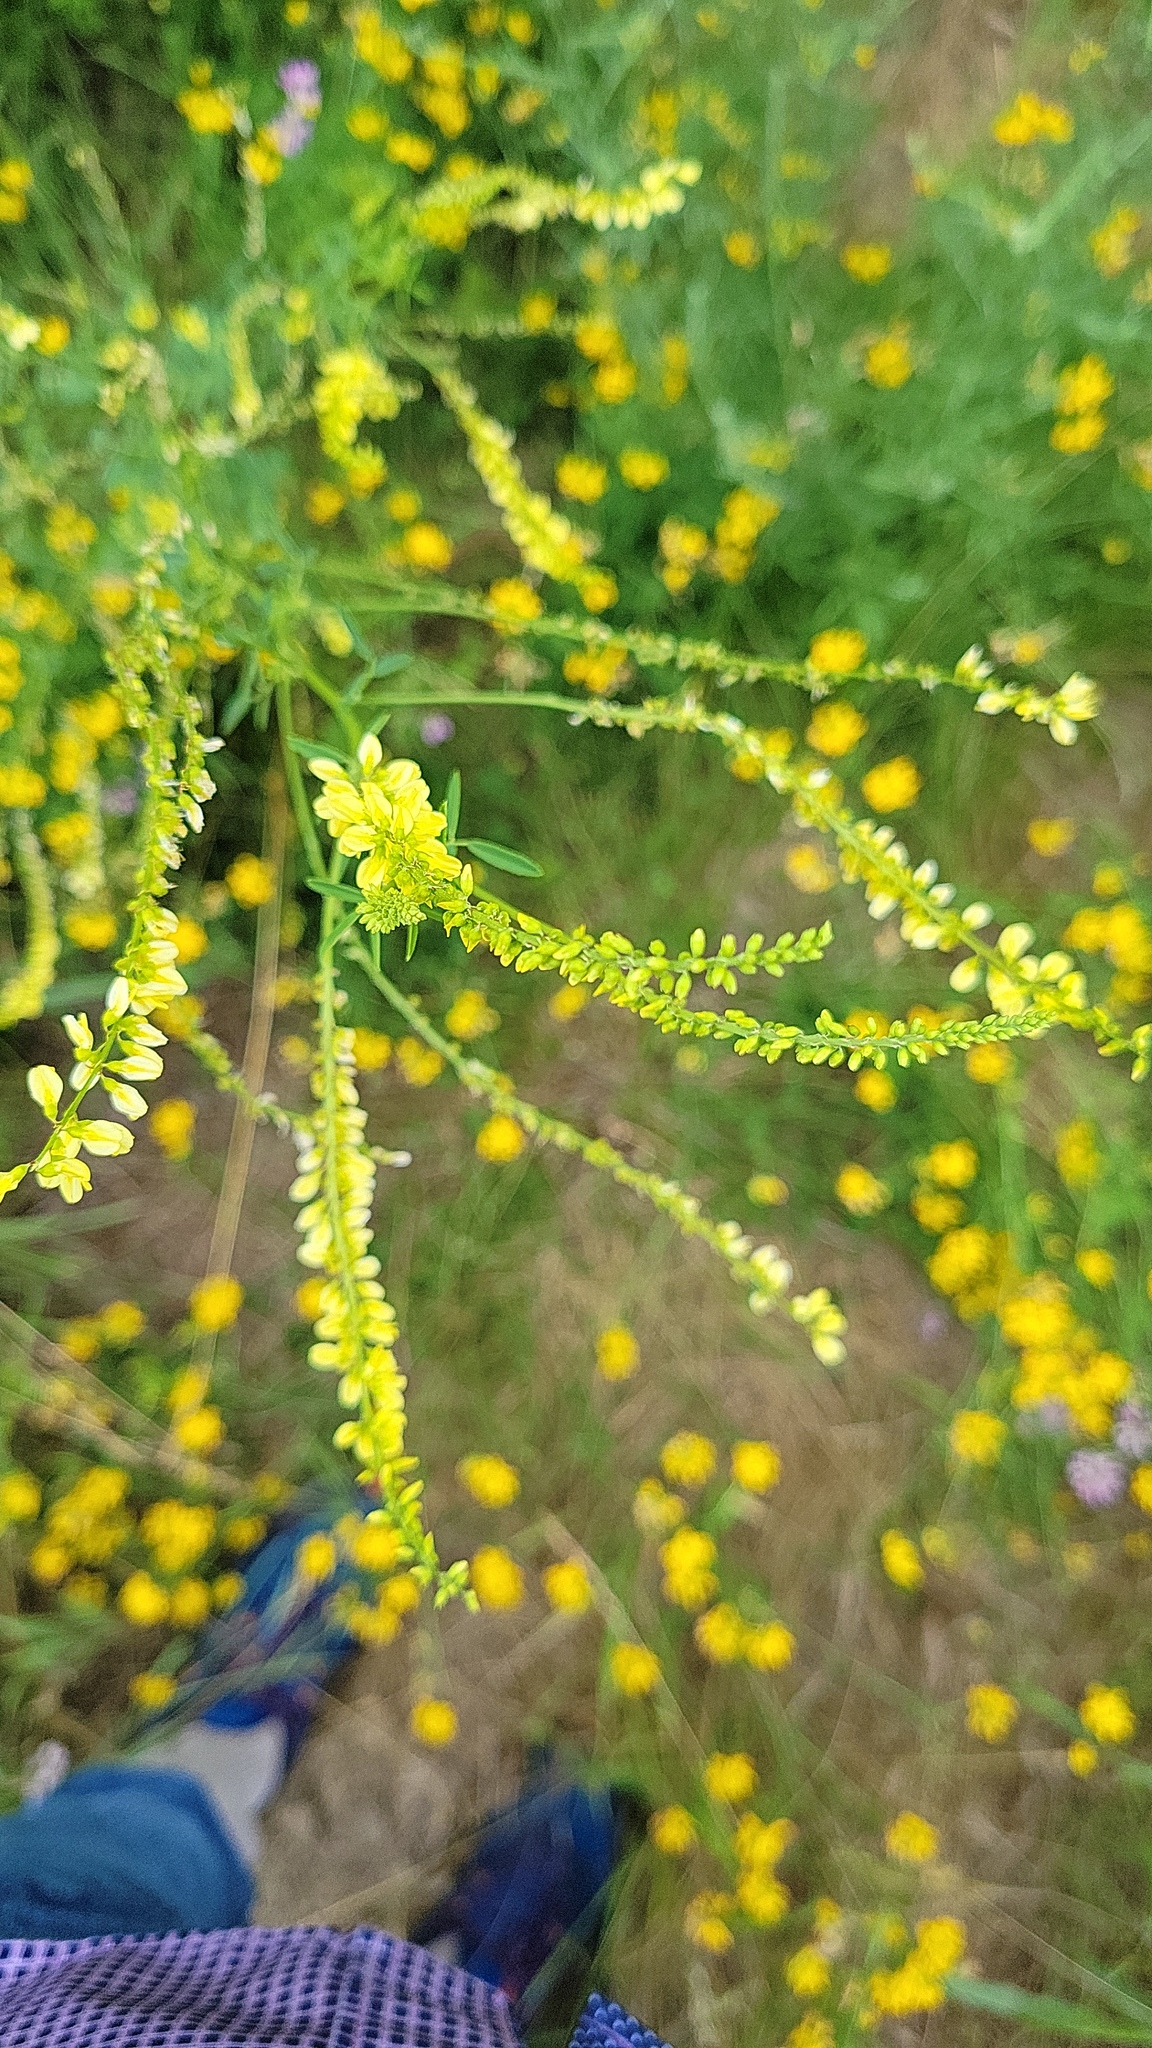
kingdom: Plantae
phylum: Tracheophyta
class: Magnoliopsida
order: Fabales
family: Fabaceae
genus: Melilotus
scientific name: Melilotus officinalis
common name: Sweetclover
